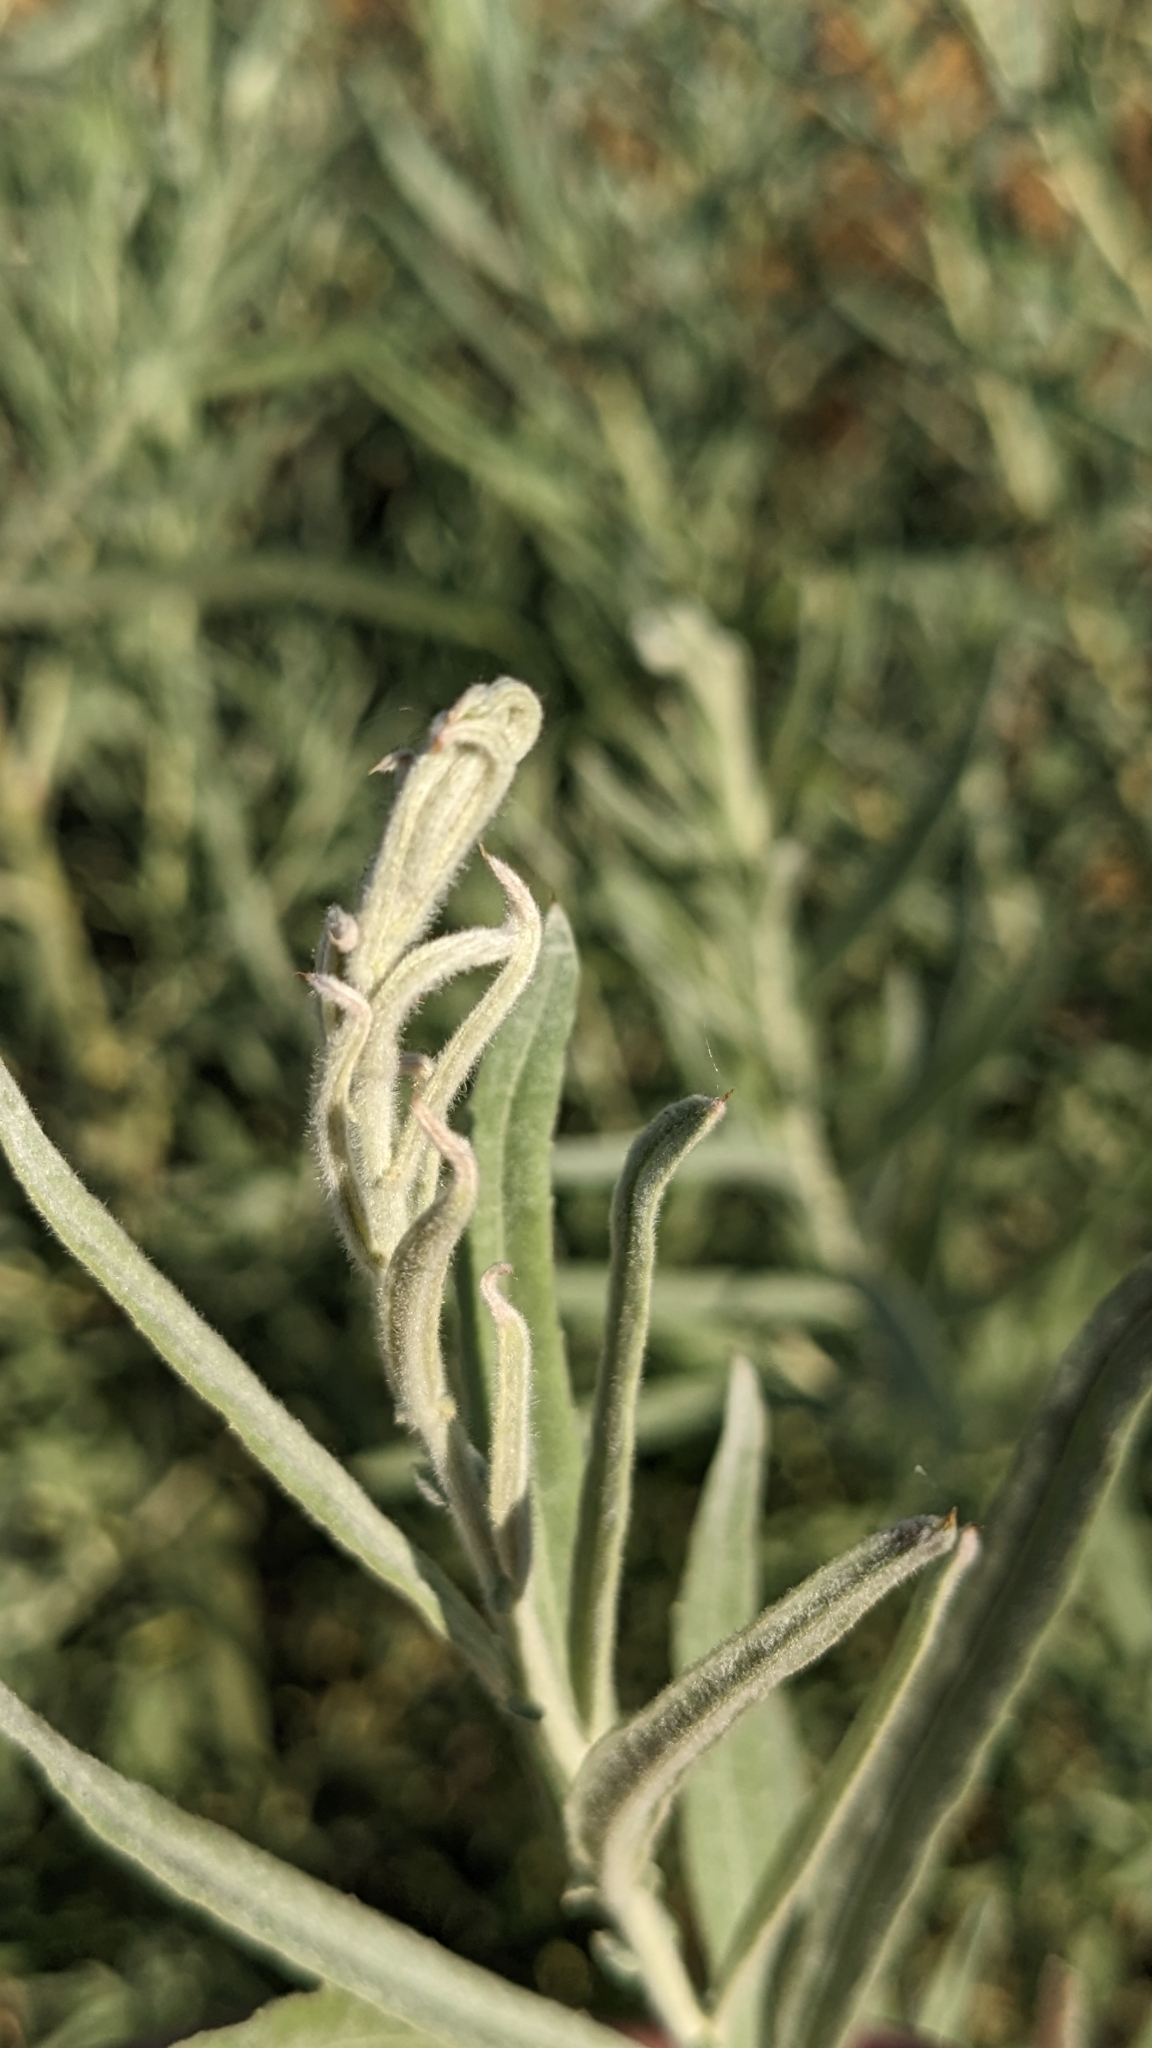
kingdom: Plantae
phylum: Tracheophyta
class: Magnoliopsida
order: Malpighiales
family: Salicaceae
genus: Salix
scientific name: Salix exigua
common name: Coyote willow
